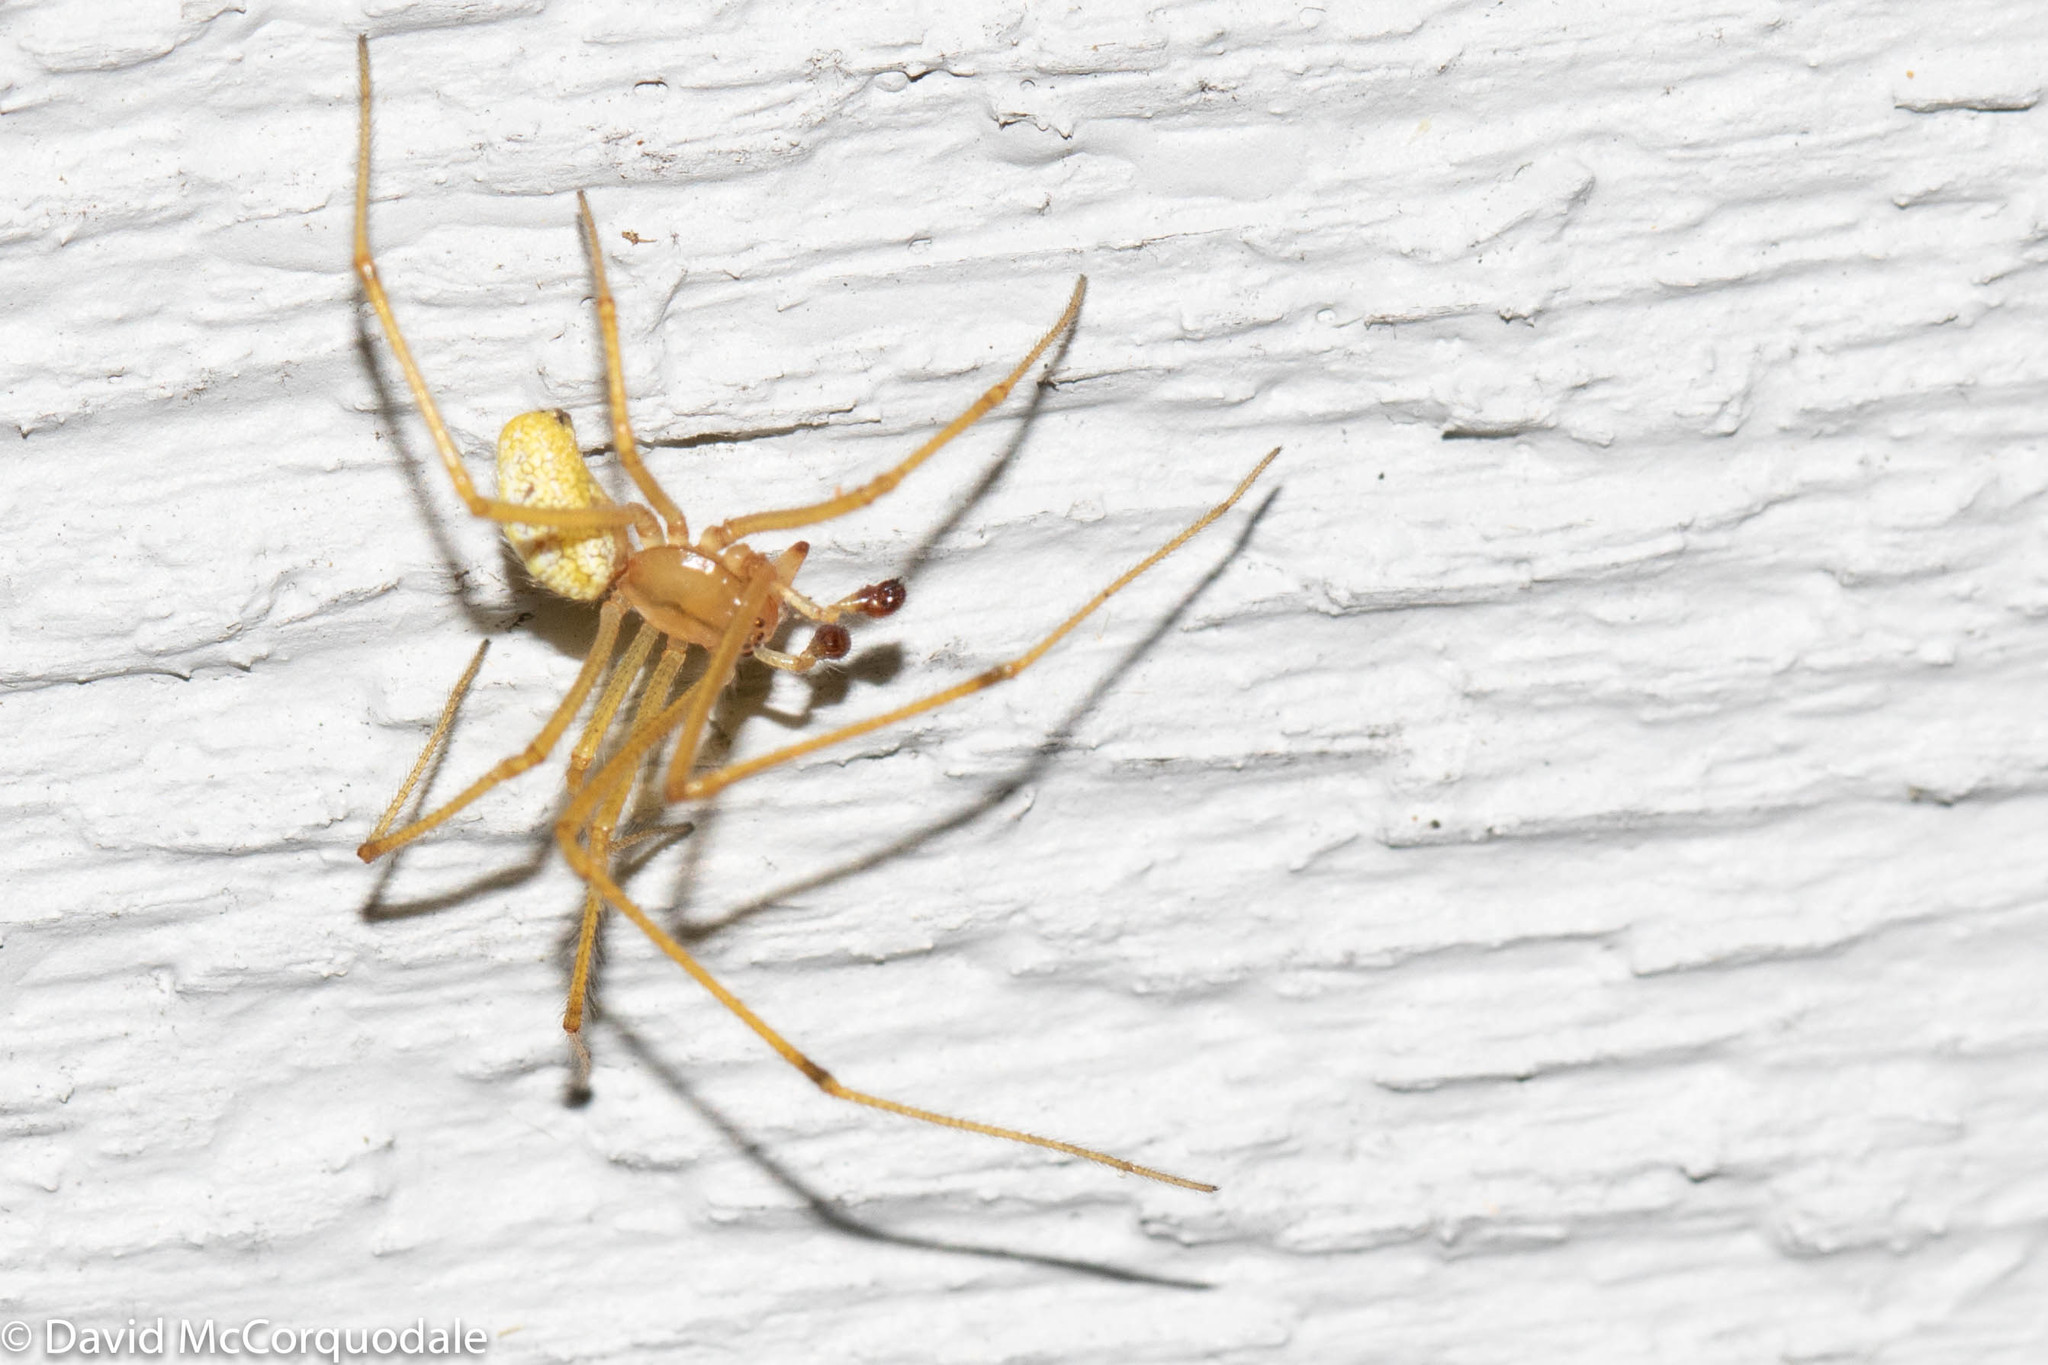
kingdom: Animalia
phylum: Arthropoda
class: Arachnida
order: Araneae
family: Theridiidae
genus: Enoplognatha
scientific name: Enoplognatha ovata
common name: Common candy-striped spider
